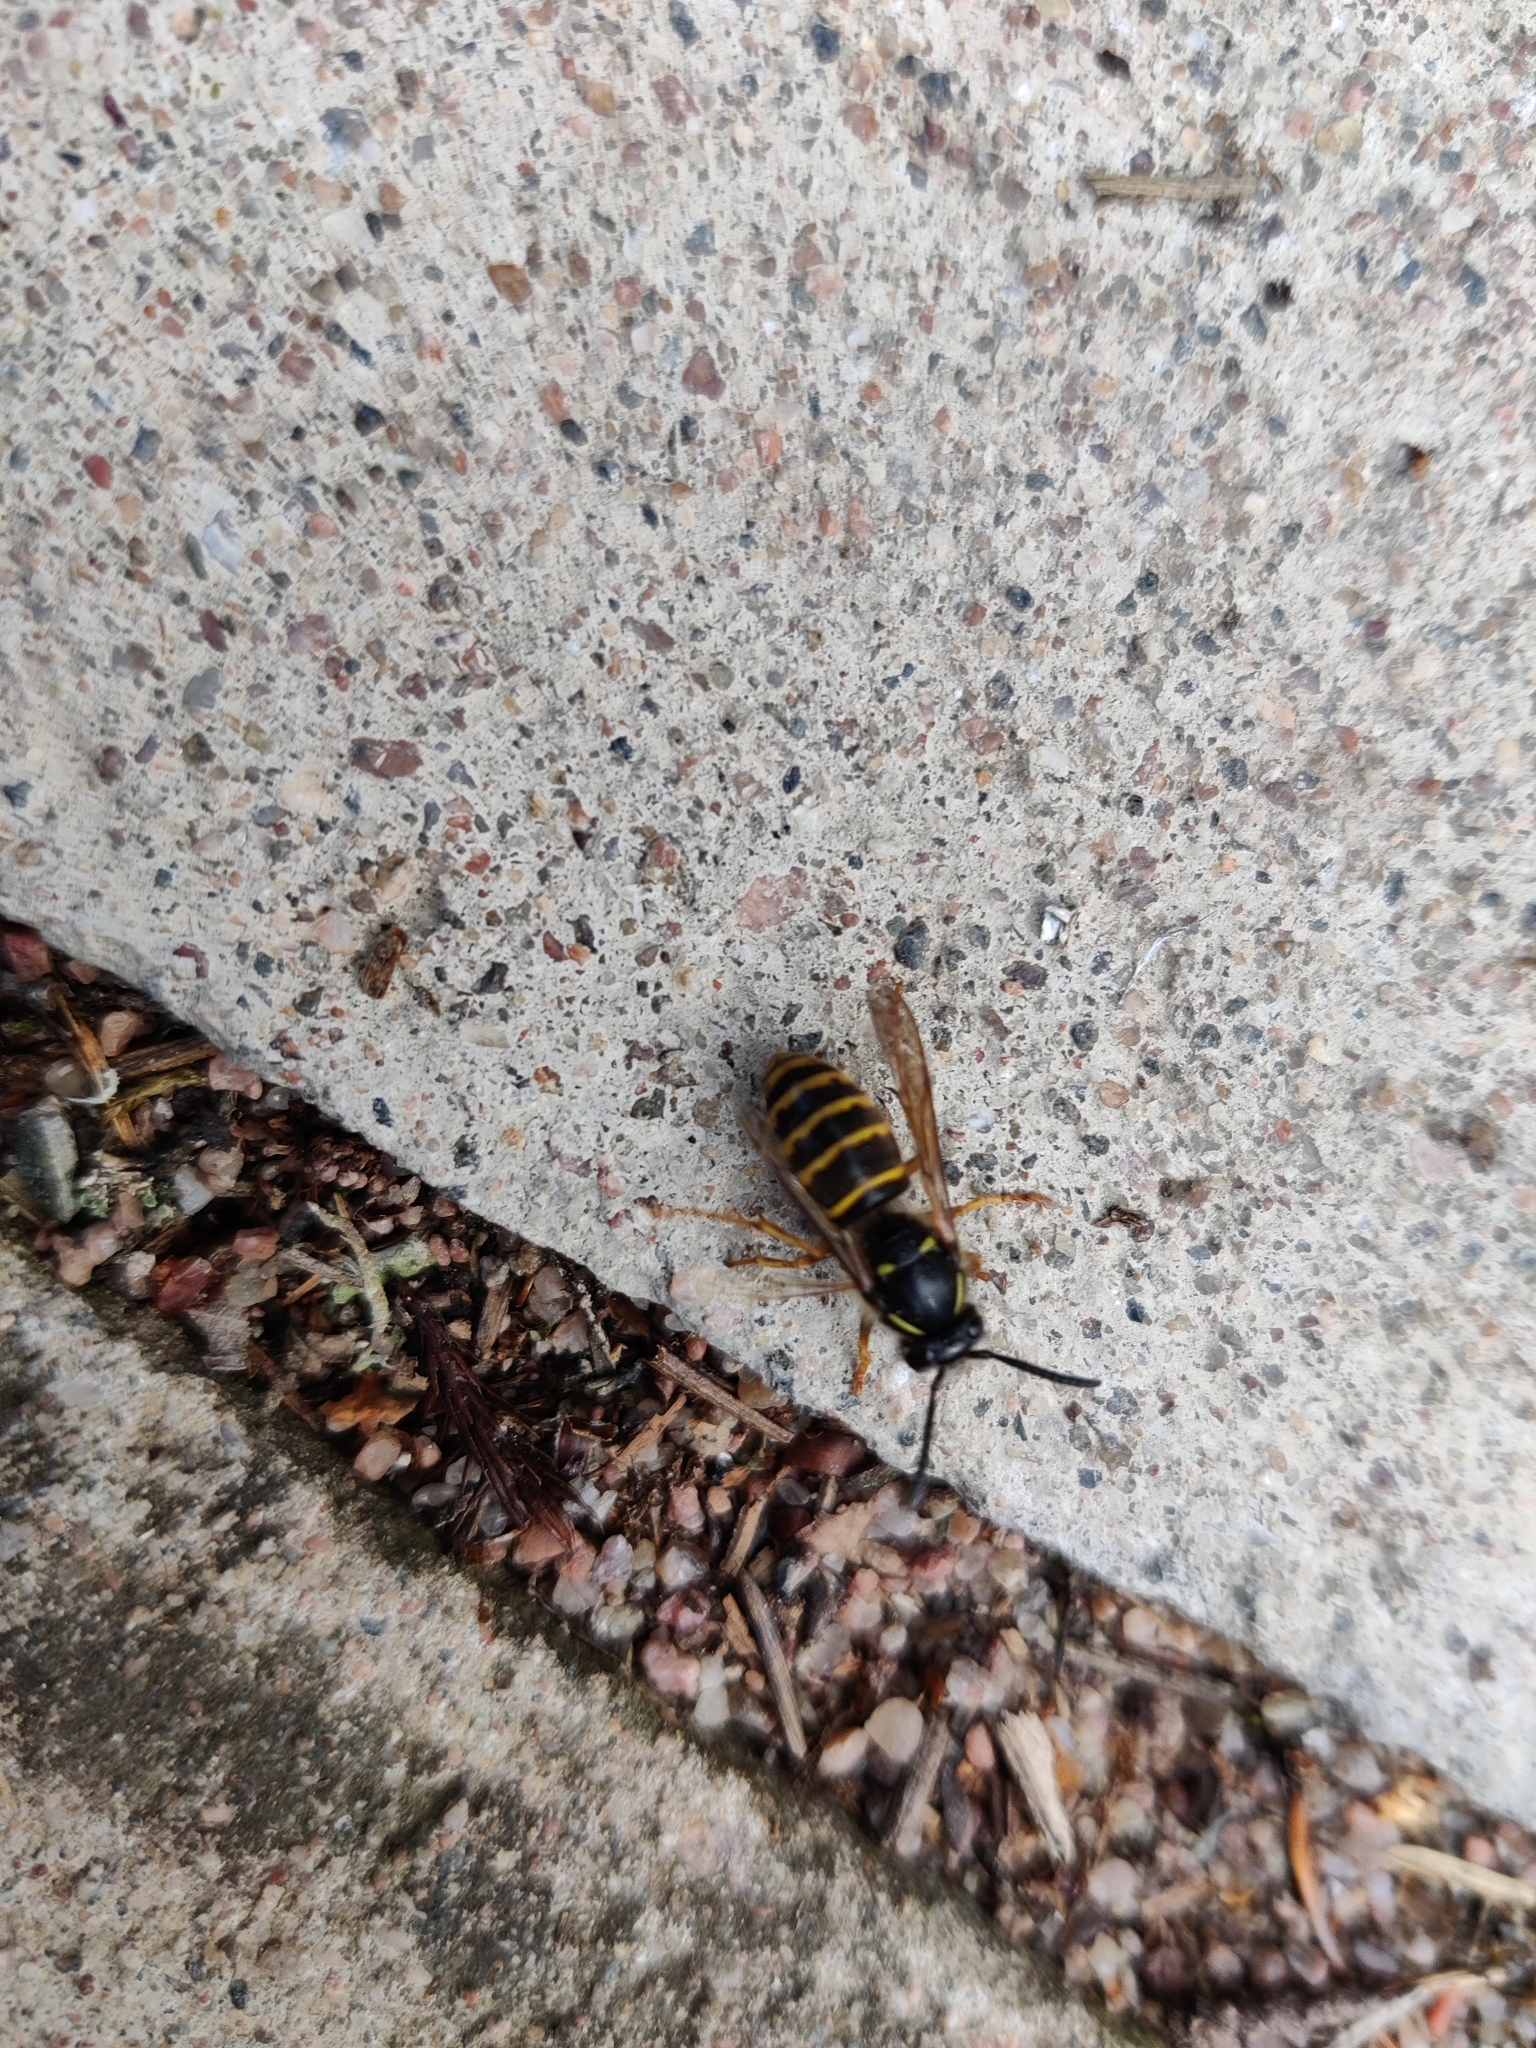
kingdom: Animalia
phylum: Arthropoda
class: Insecta
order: Hymenoptera
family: Vespidae
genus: Dolichovespula
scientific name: Dolichovespula saxonica
